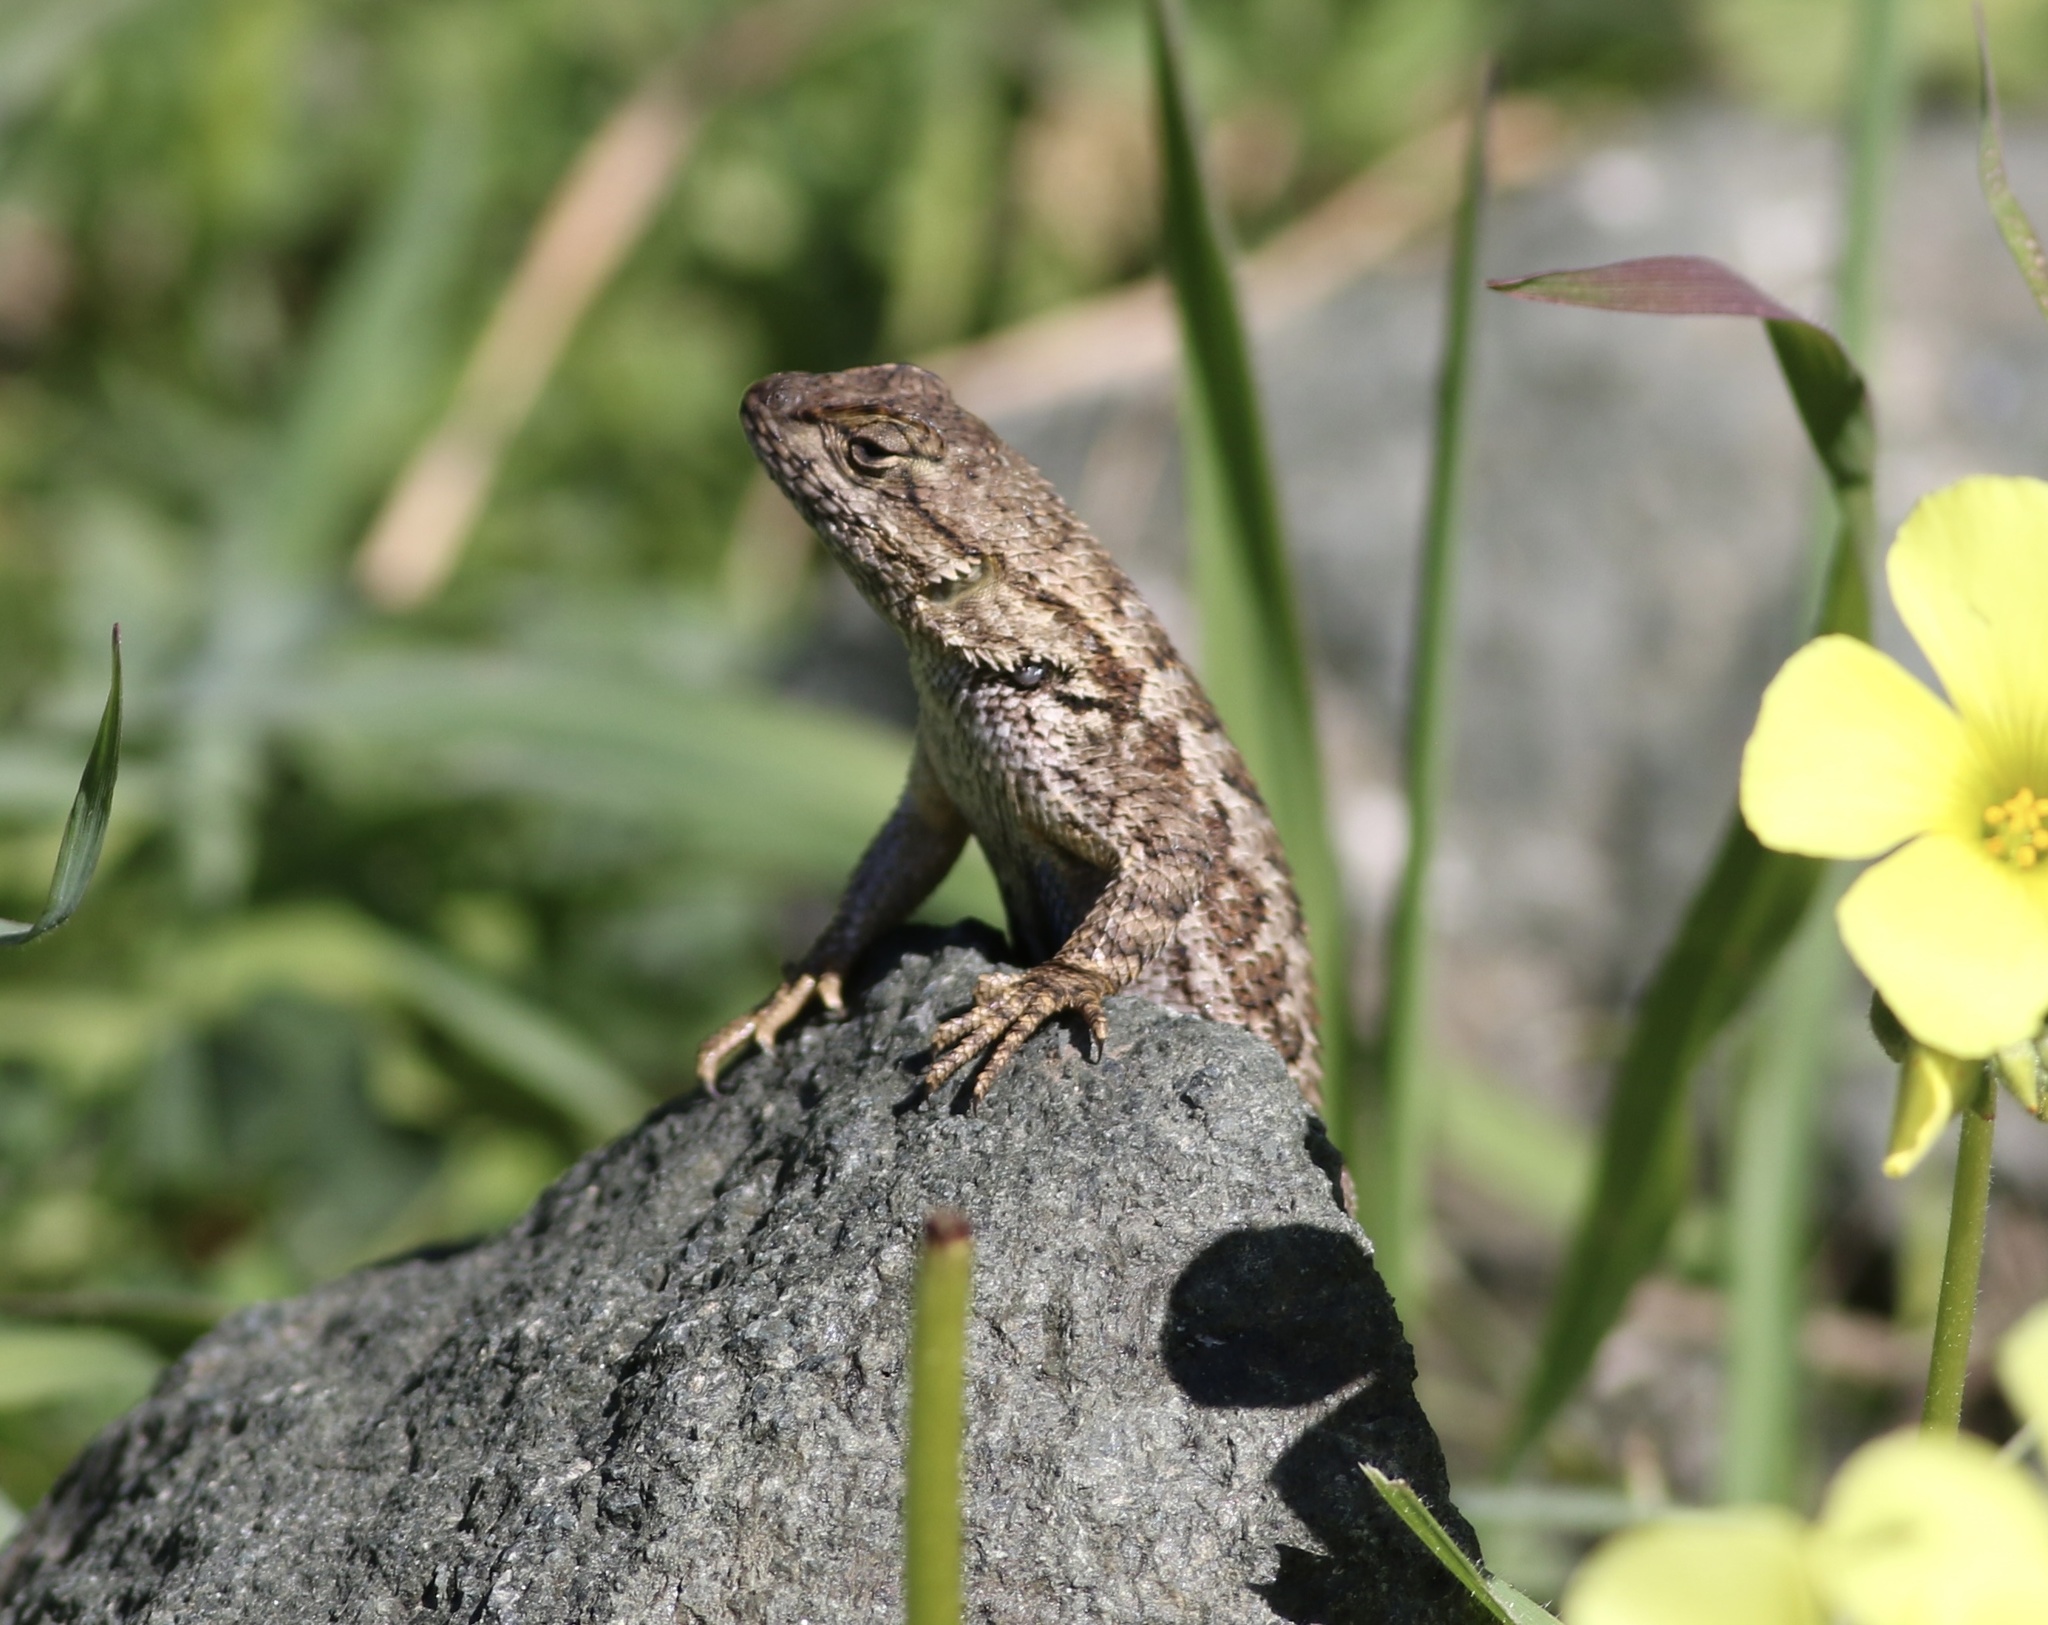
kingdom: Animalia
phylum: Chordata
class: Squamata
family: Phrynosomatidae
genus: Sceloporus
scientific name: Sceloporus occidentalis
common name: Western fence lizard
